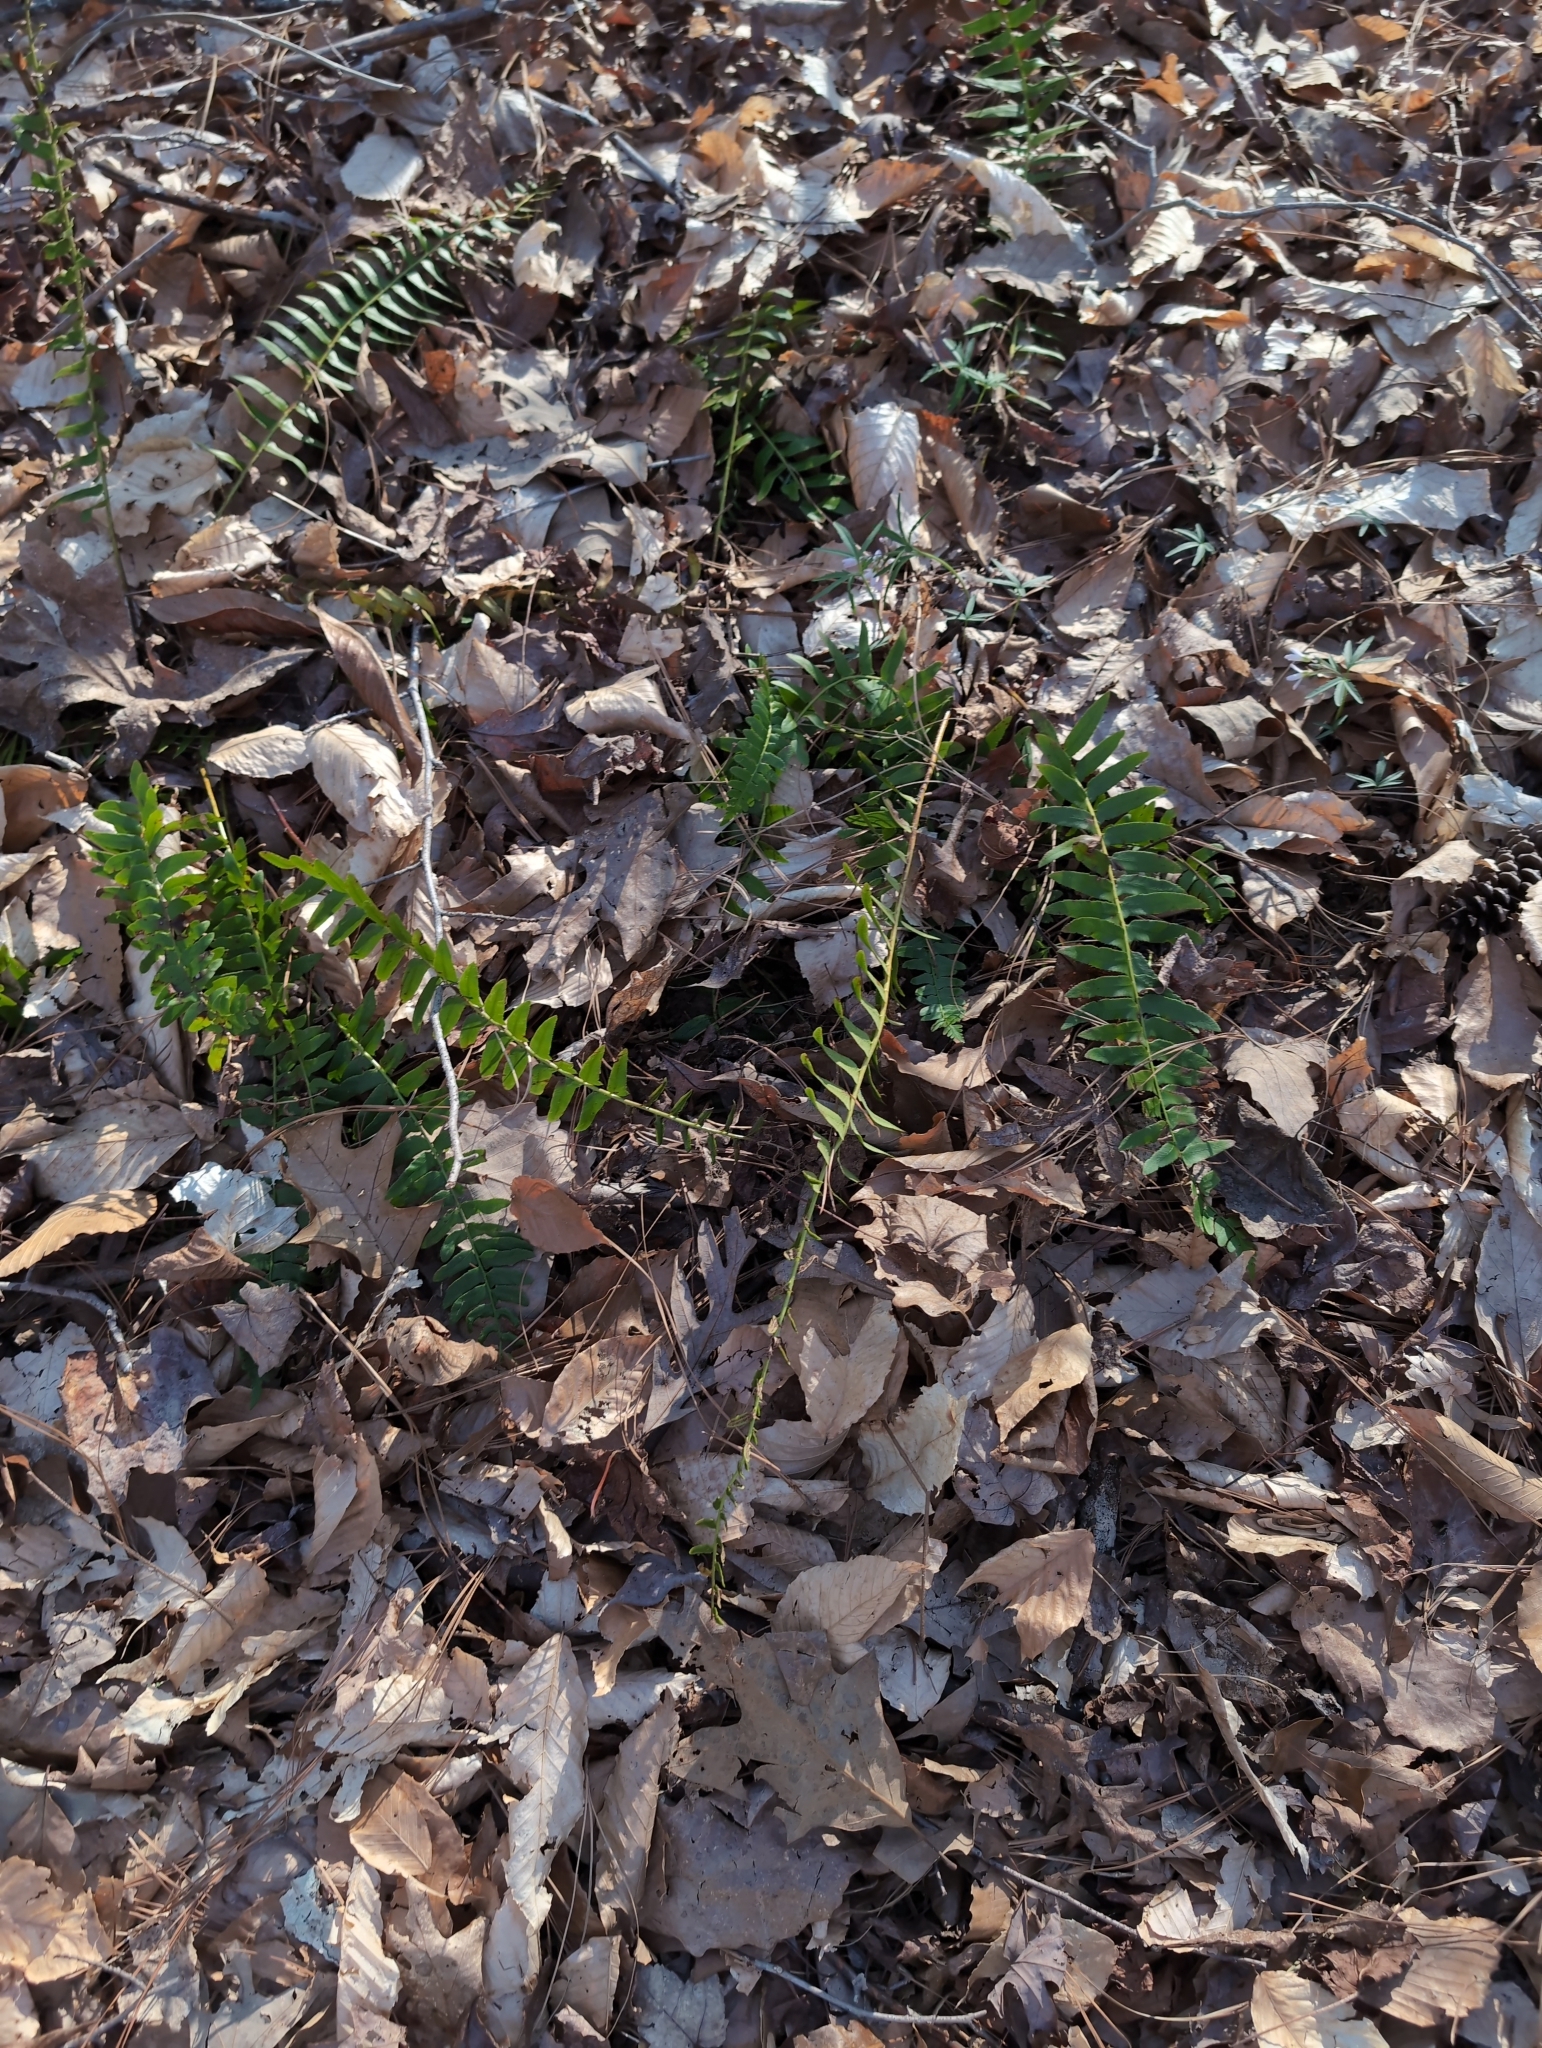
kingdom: Plantae
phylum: Tracheophyta
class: Polypodiopsida
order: Polypodiales
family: Dryopteridaceae
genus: Polystichum
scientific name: Polystichum acrostichoides
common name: Christmas fern
